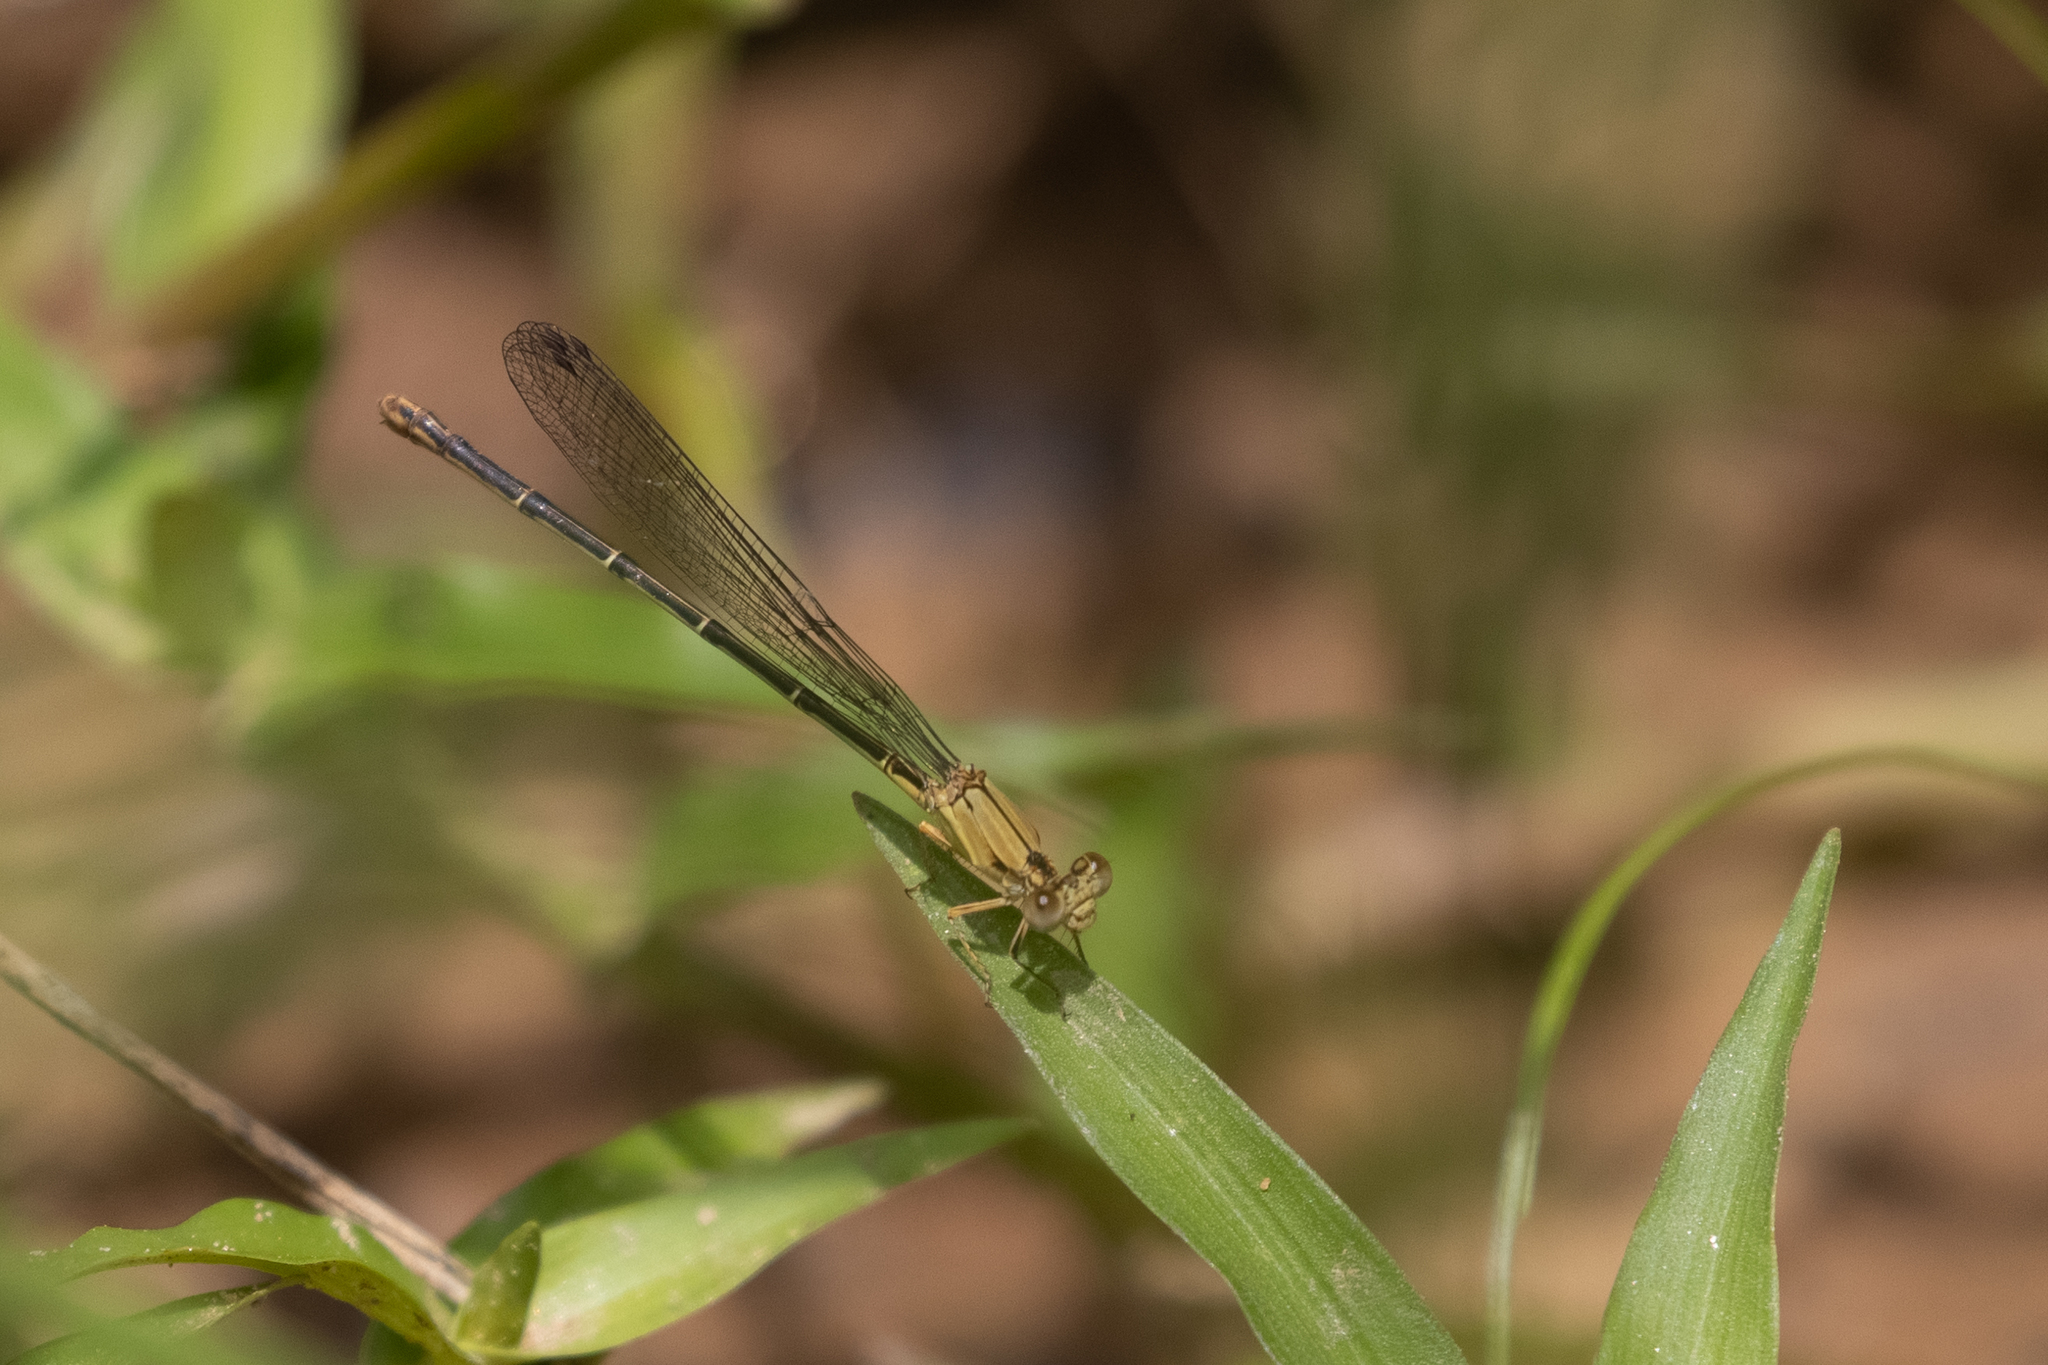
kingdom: Animalia
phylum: Arthropoda
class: Insecta
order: Odonata
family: Coenagrionidae
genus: Argia
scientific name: Argia apicalis
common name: Blue-fronted dancer
